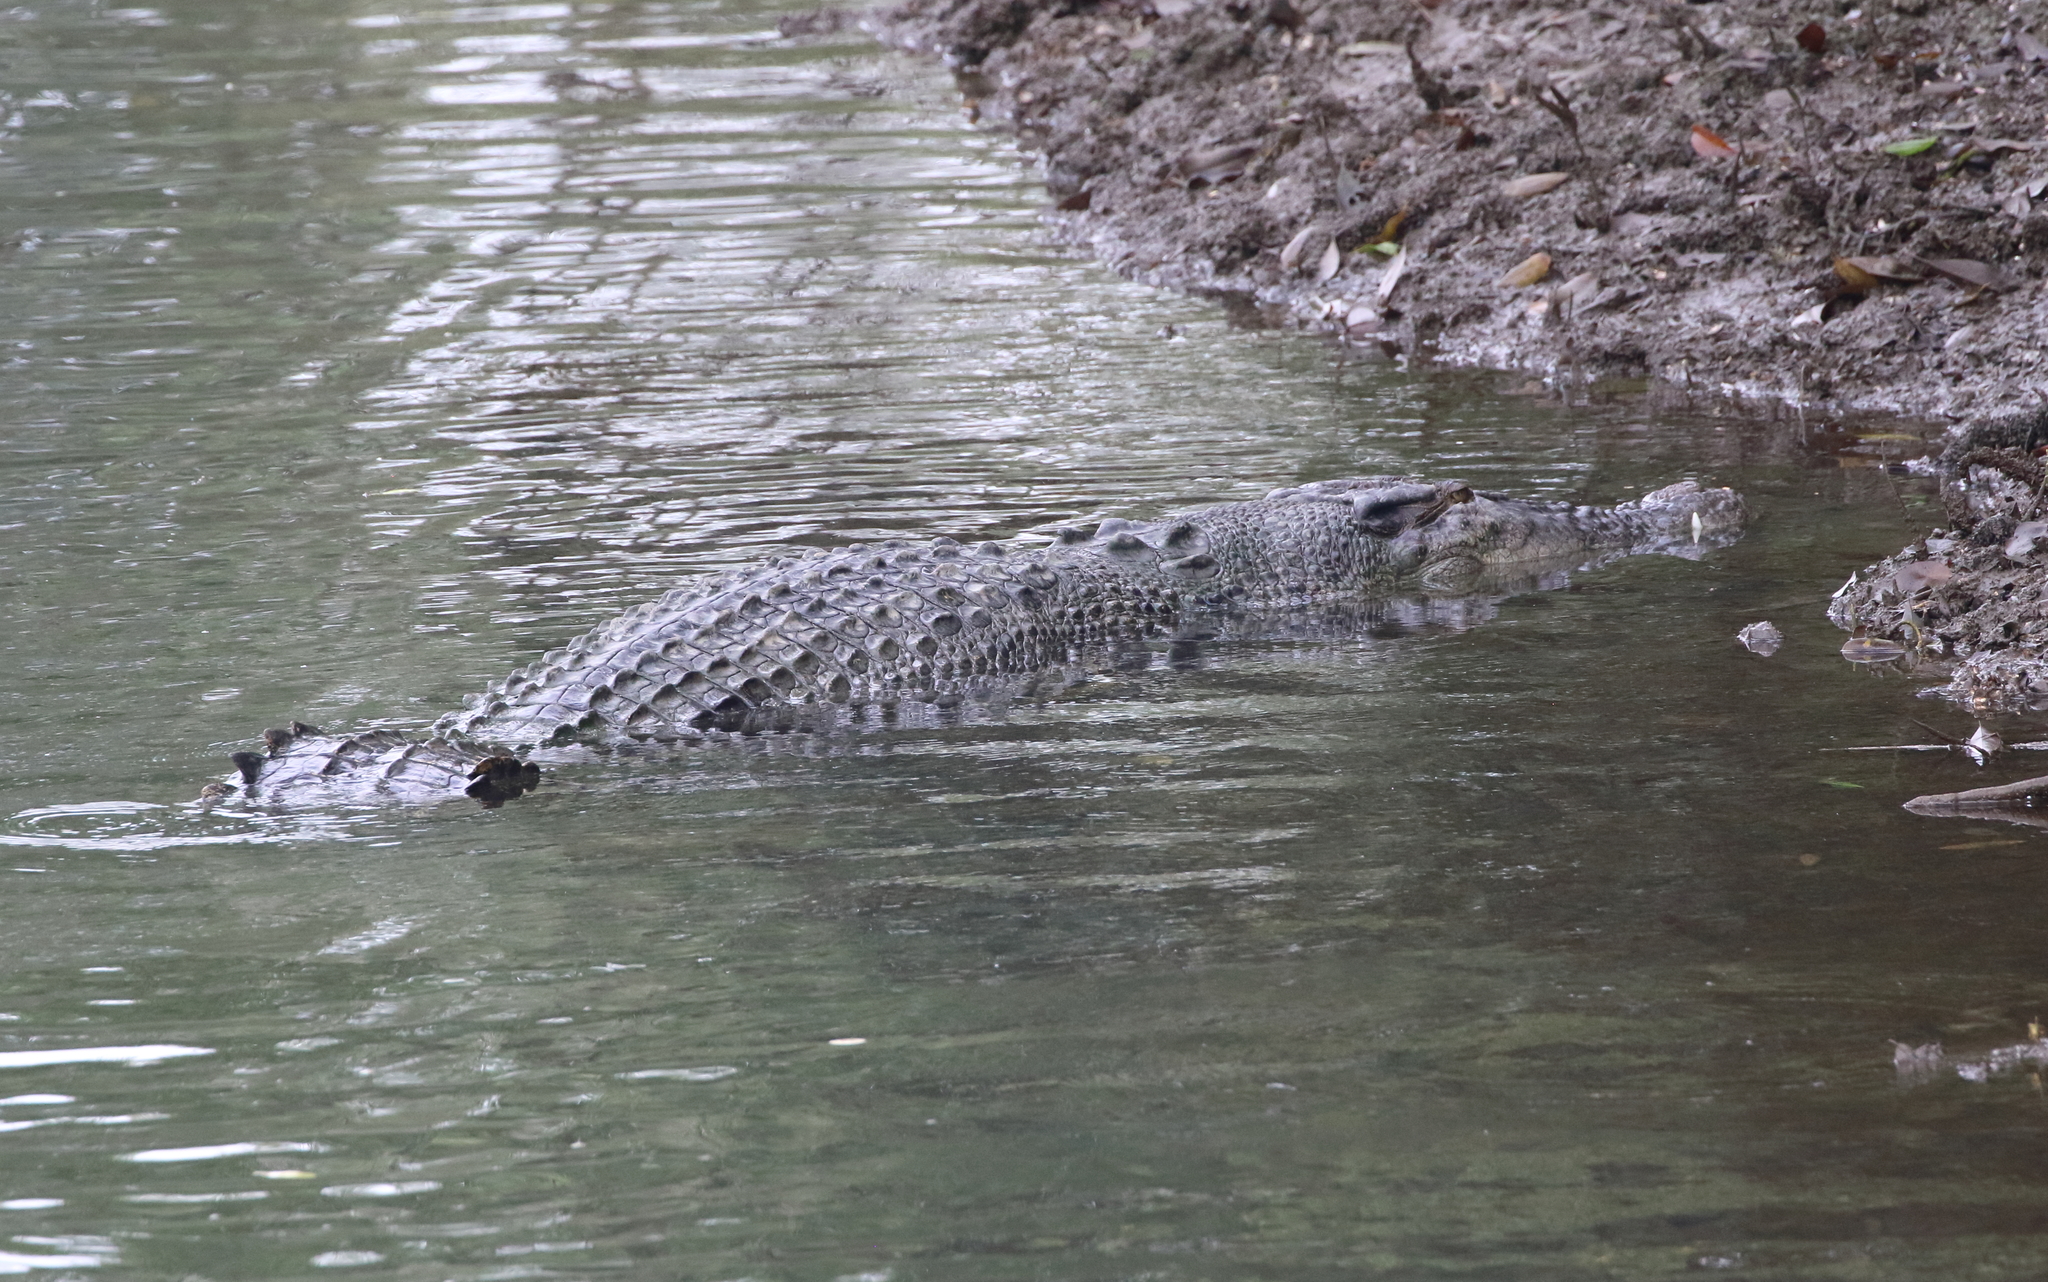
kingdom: Animalia
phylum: Chordata
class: Crocodylia
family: Crocodylidae
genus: Crocodylus
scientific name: Crocodylus porosus
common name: Saltwater crocodile
